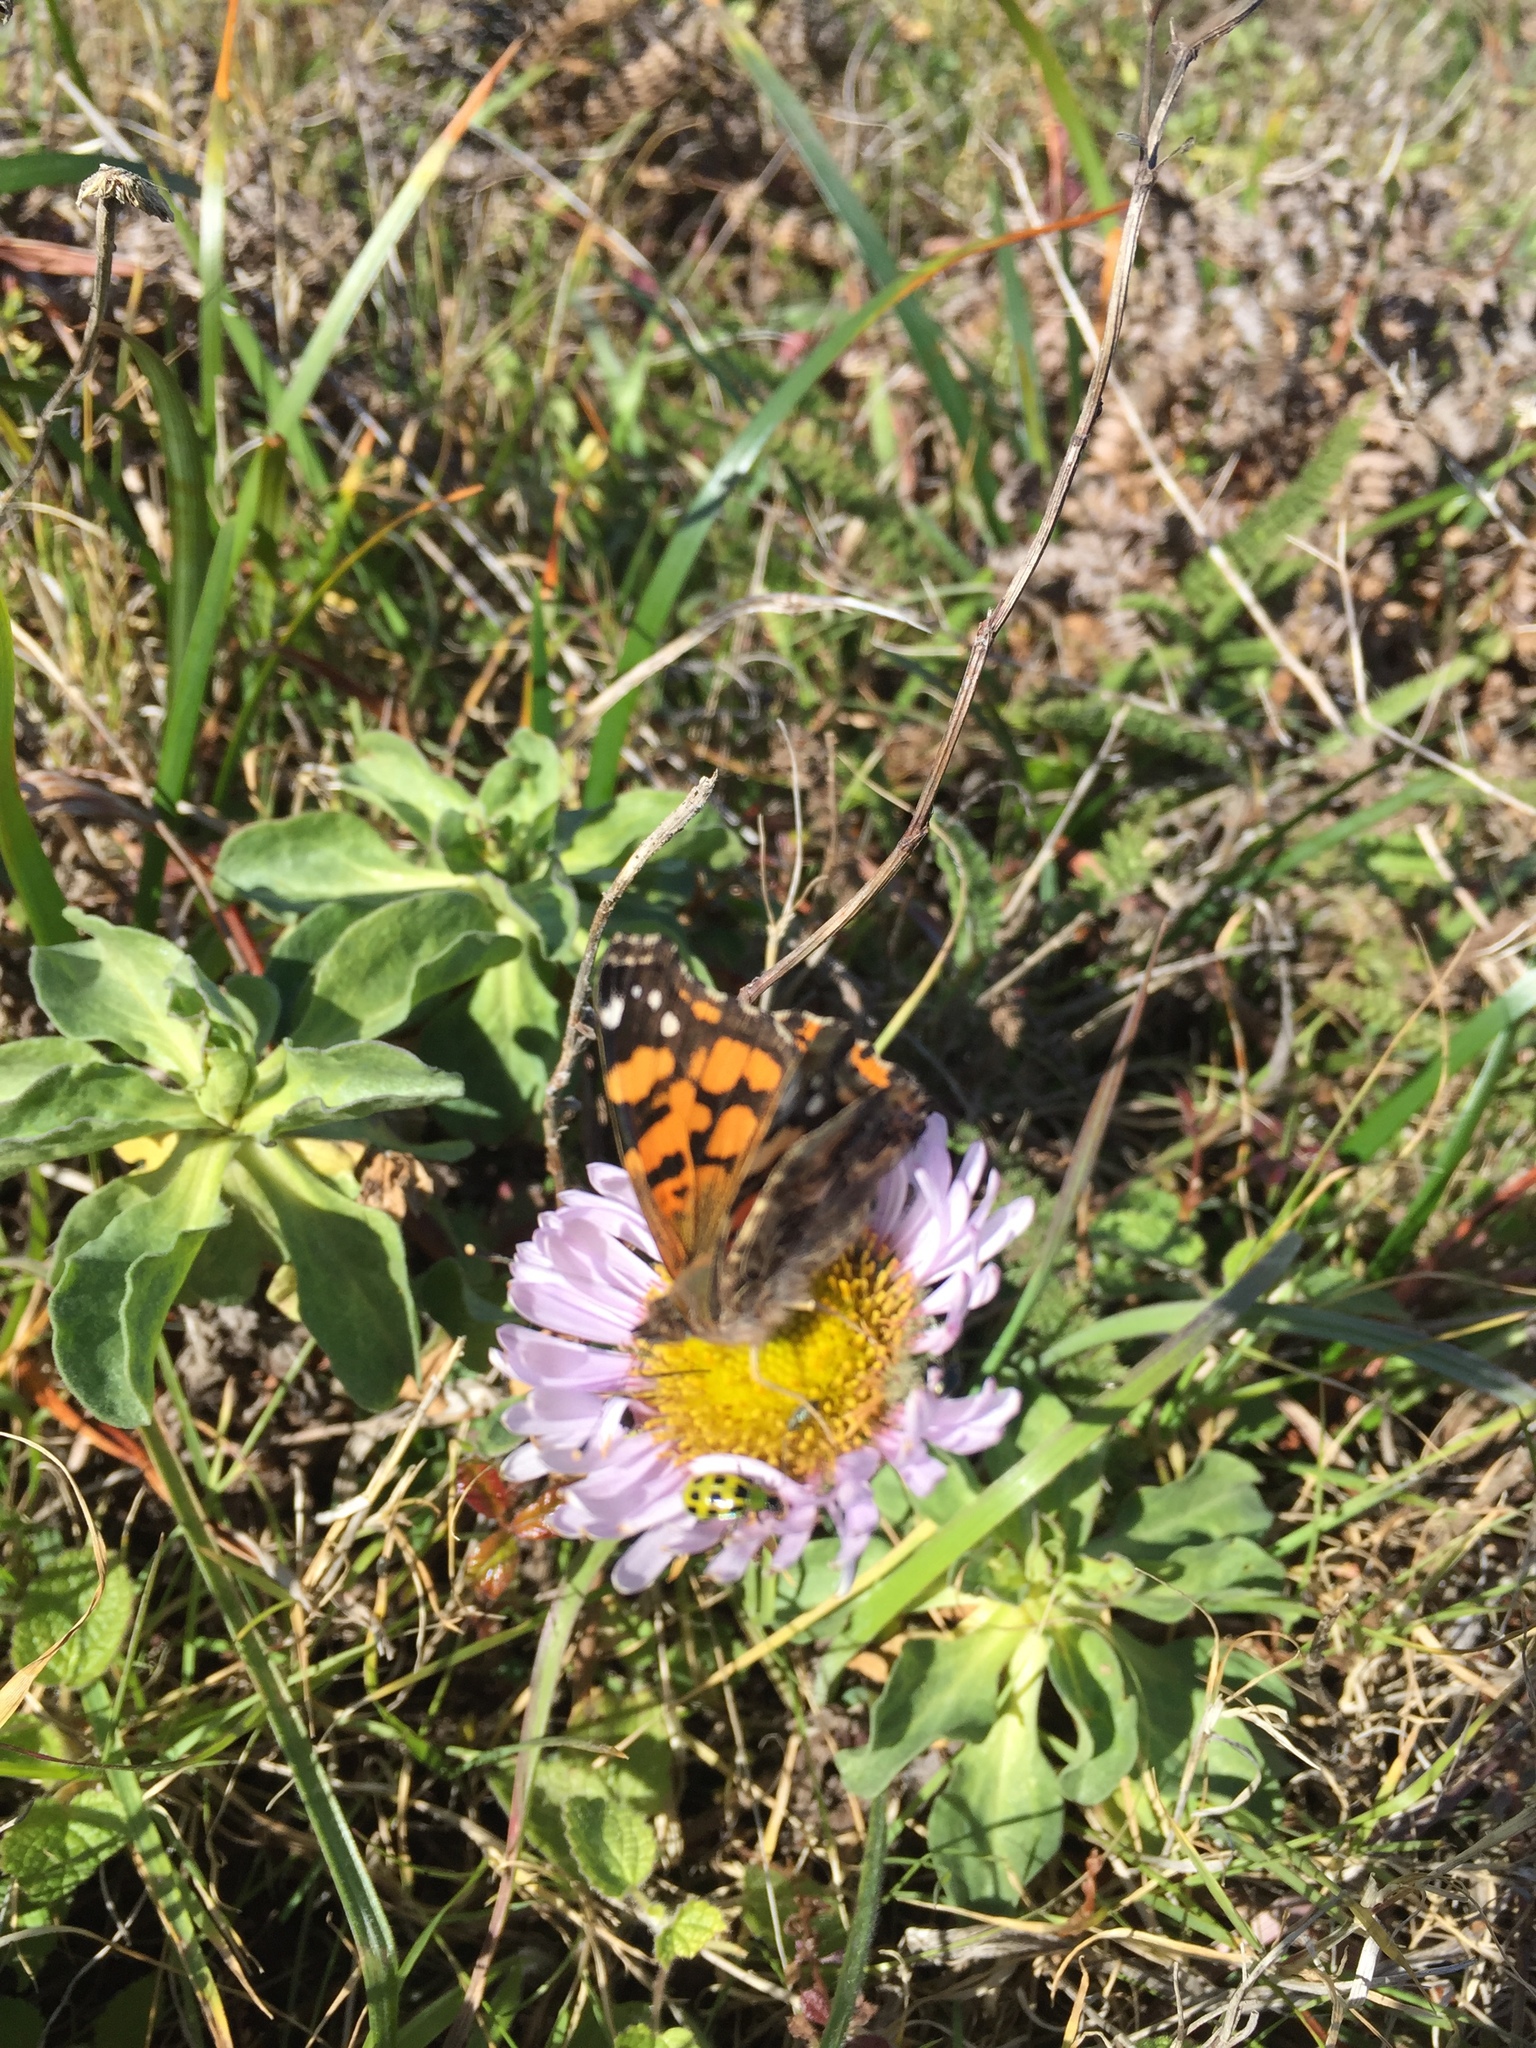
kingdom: Animalia
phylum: Arthropoda
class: Insecta
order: Lepidoptera
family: Nymphalidae
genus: Vanessa
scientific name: Vanessa annabella
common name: West coast lady
